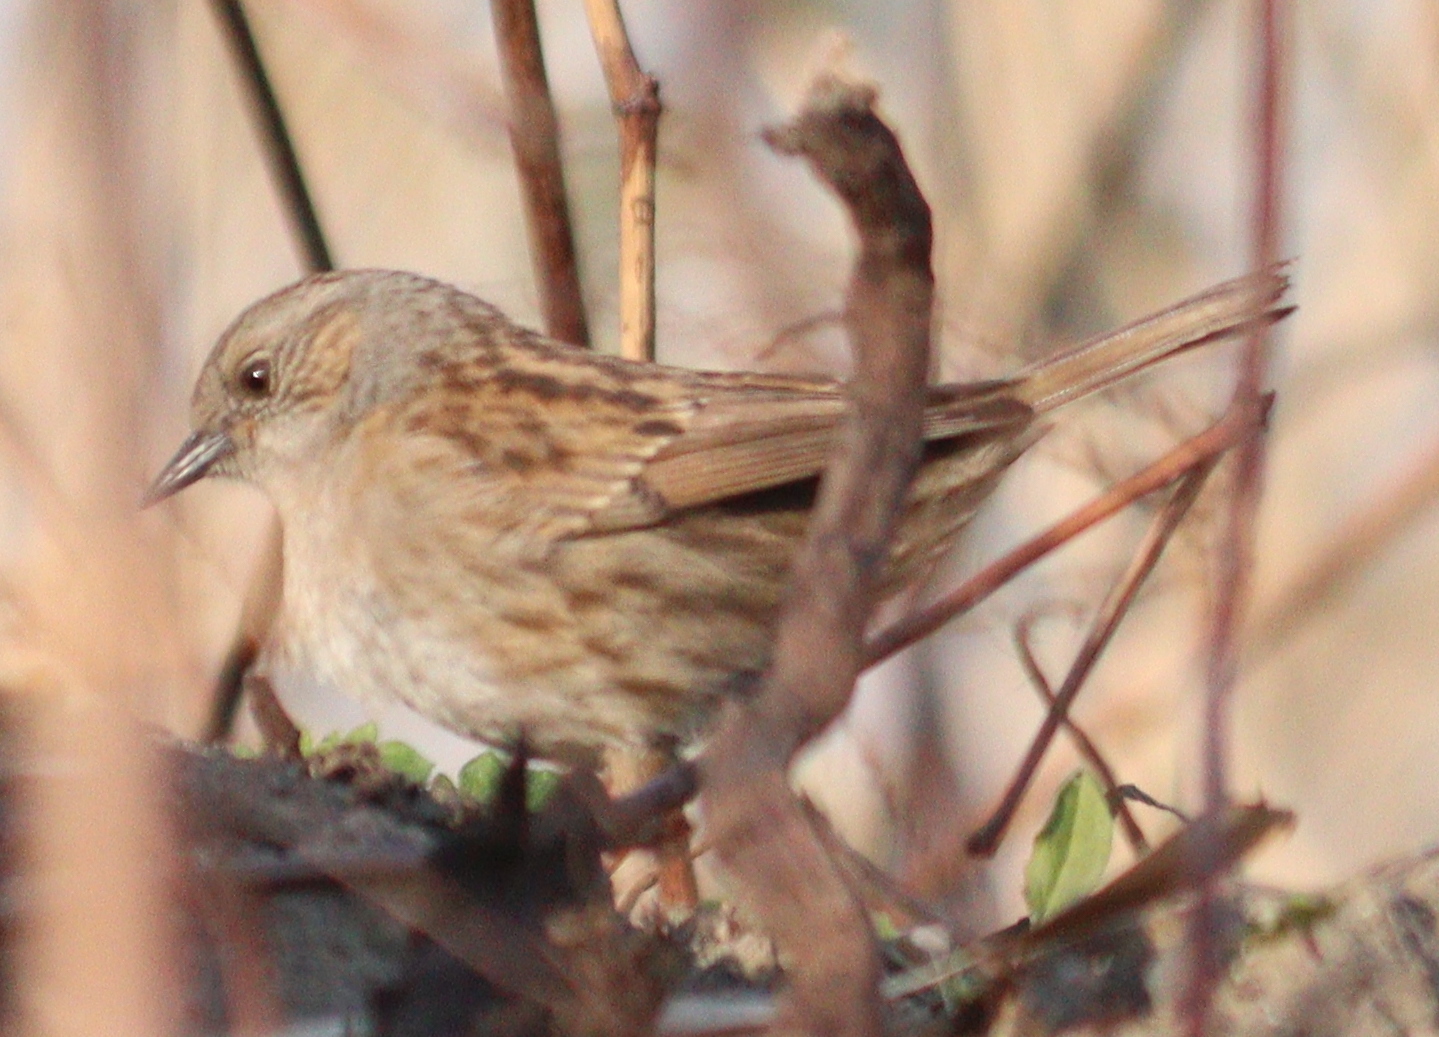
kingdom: Animalia
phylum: Chordata
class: Aves
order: Passeriformes
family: Prunellidae
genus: Prunella
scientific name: Prunella modularis
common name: Dunnock
